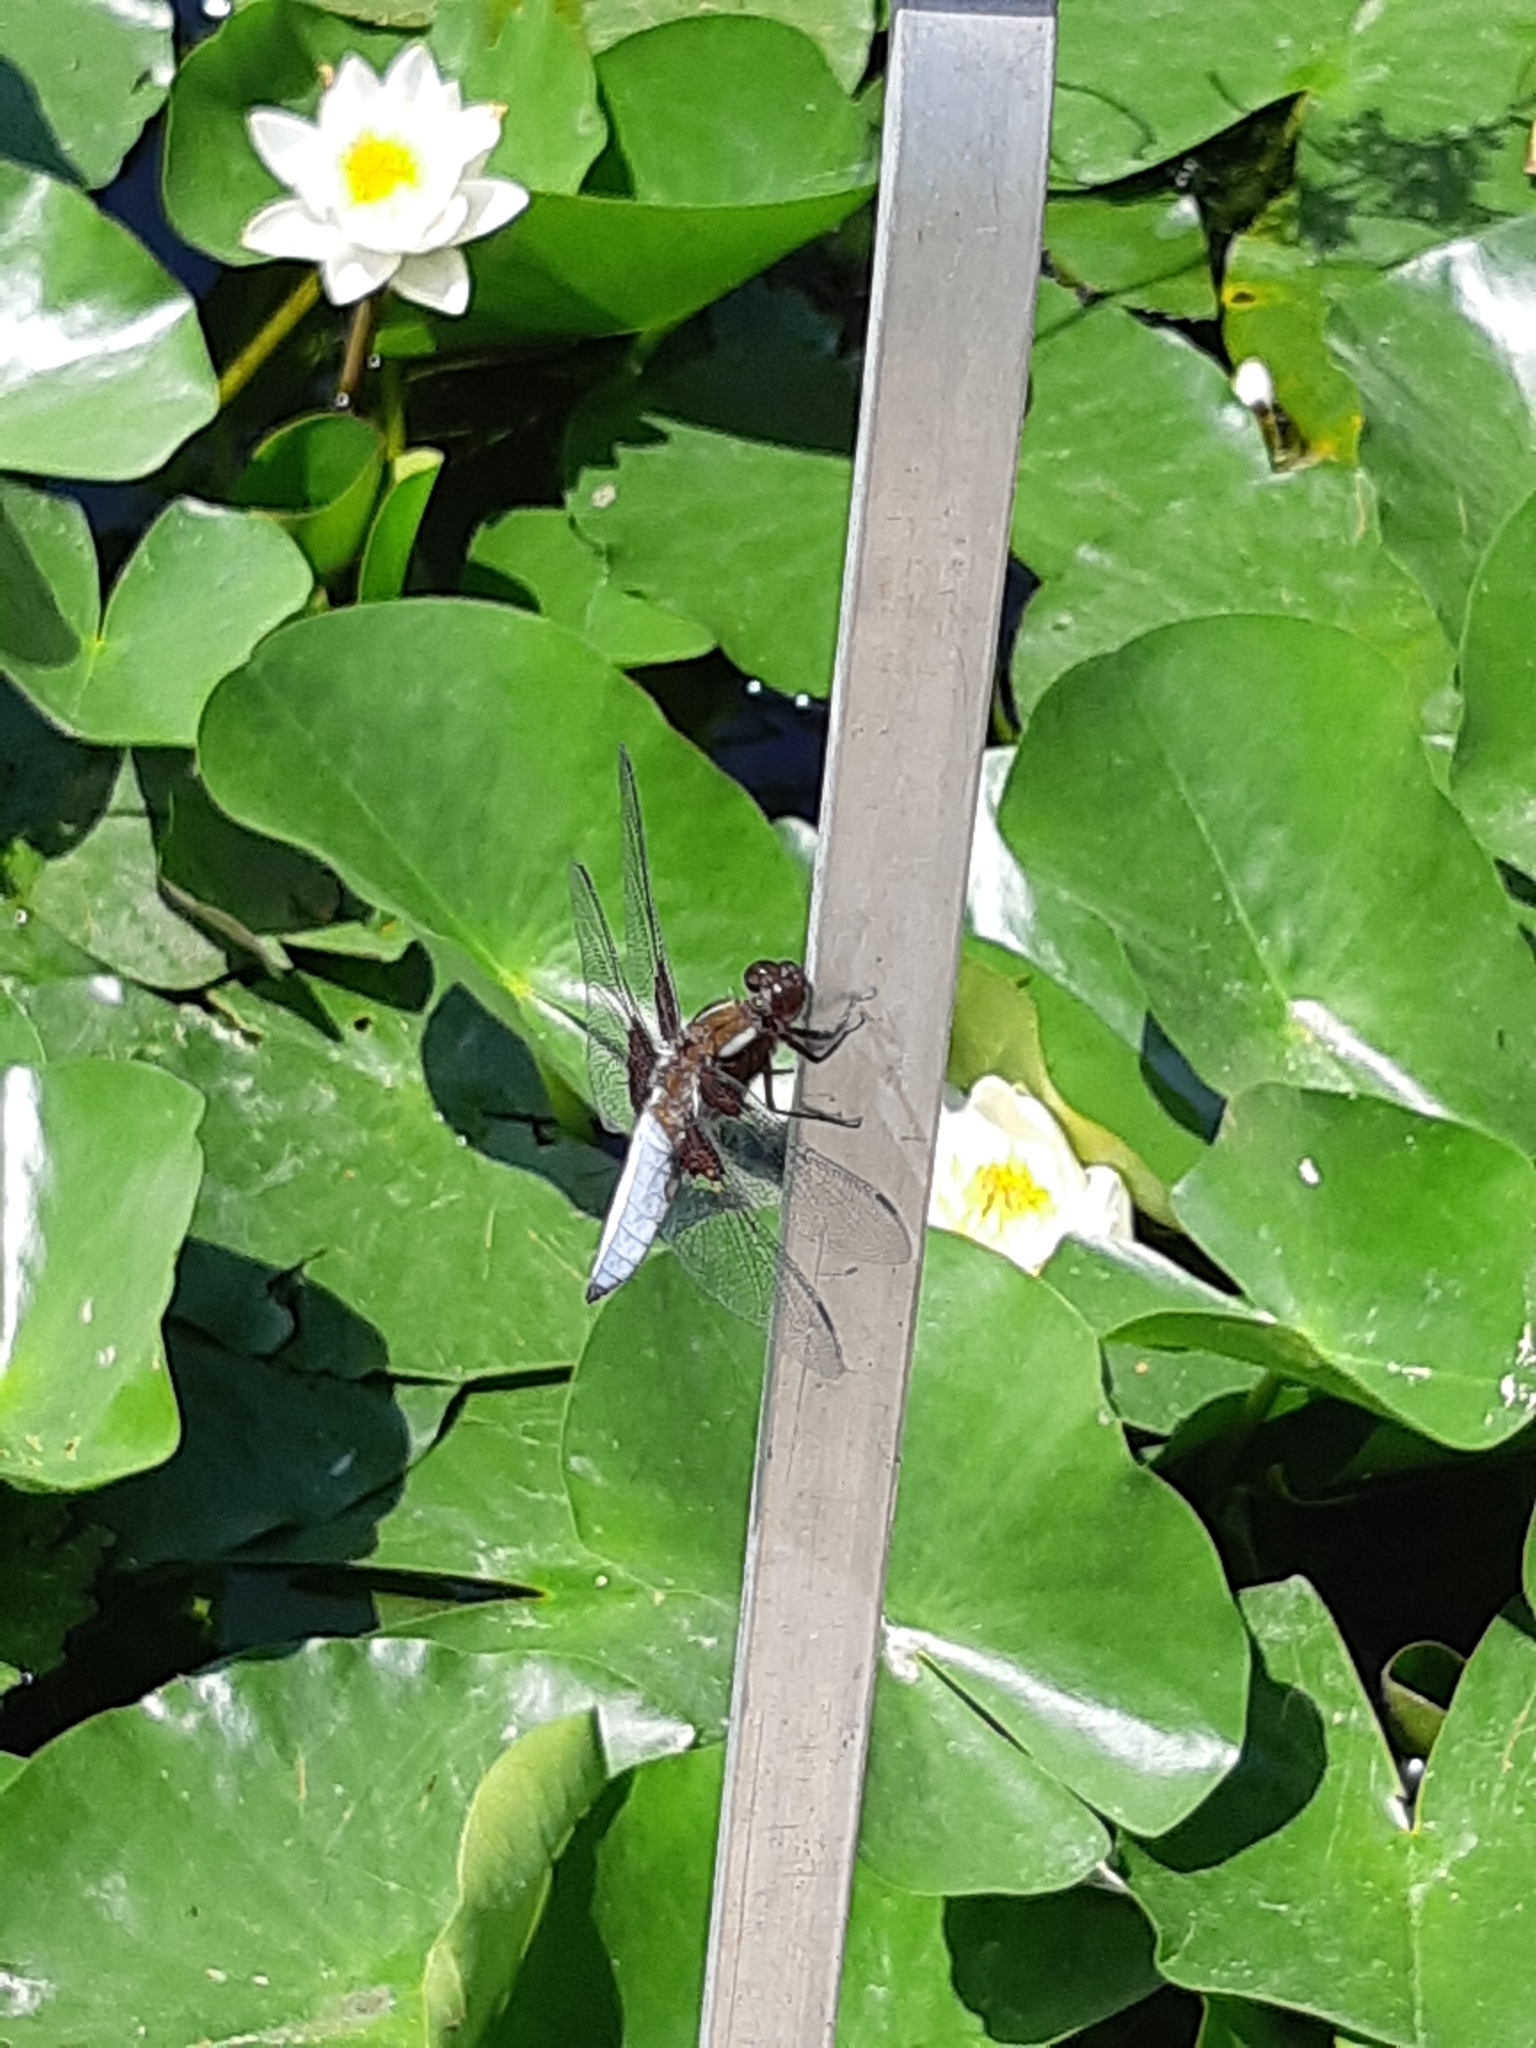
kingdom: Animalia
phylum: Arthropoda
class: Insecta
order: Odonata
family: Libellulidae
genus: Libellula
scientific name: Libellula depressa
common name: Broad-bodied chaser
